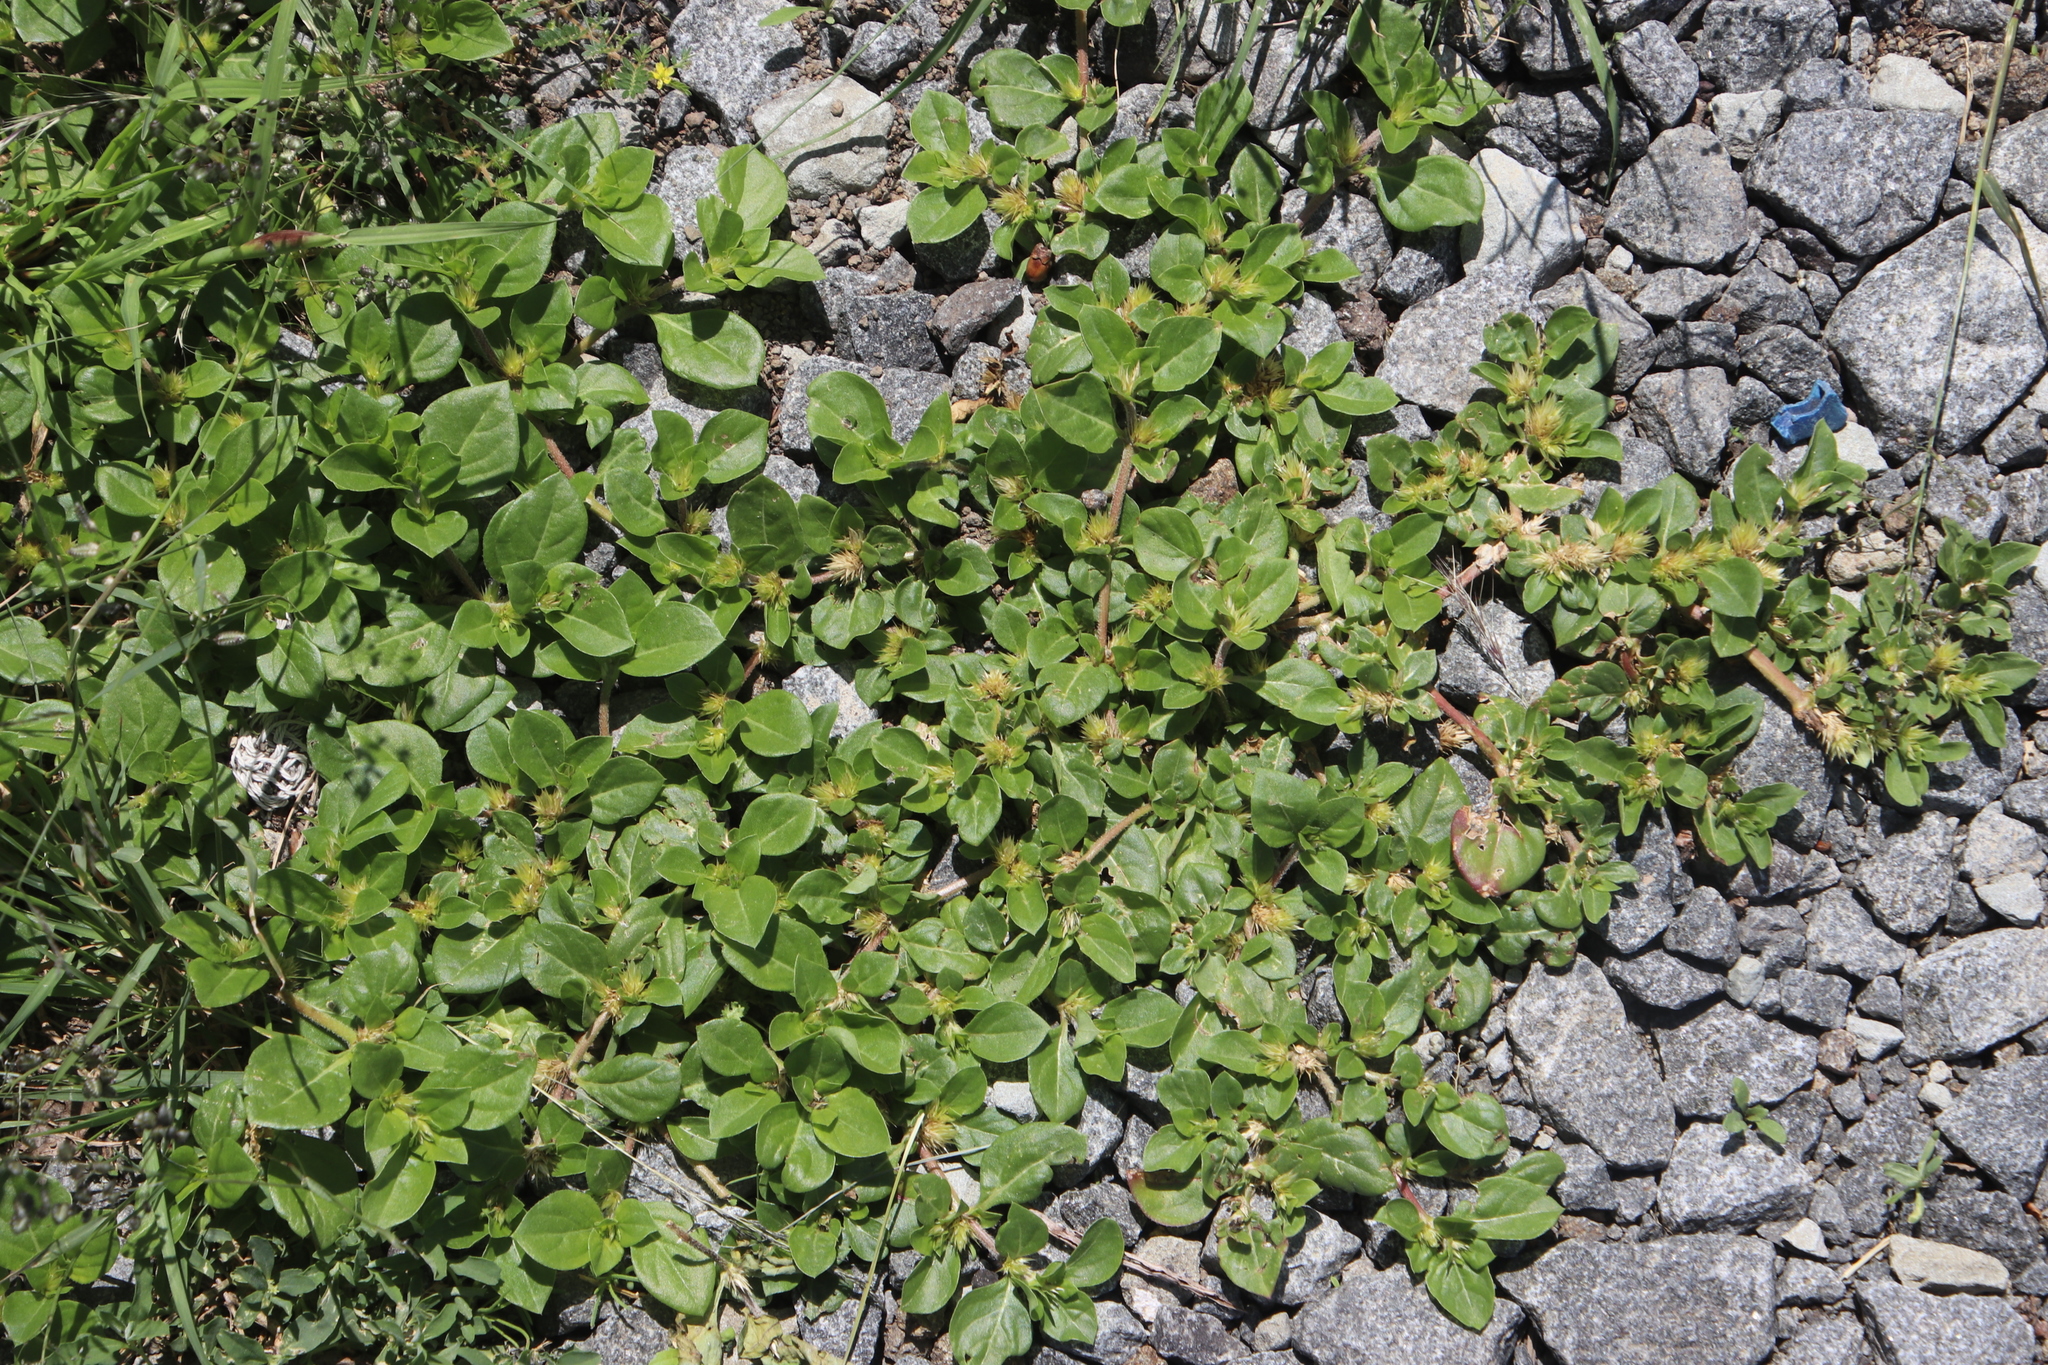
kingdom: Plantae
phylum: Tracheophyta
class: Magnoliopsida
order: Caryophyllales
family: Amaranthaceae
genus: Alternanthera
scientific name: Alternanthera pungens
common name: Khakiweed
